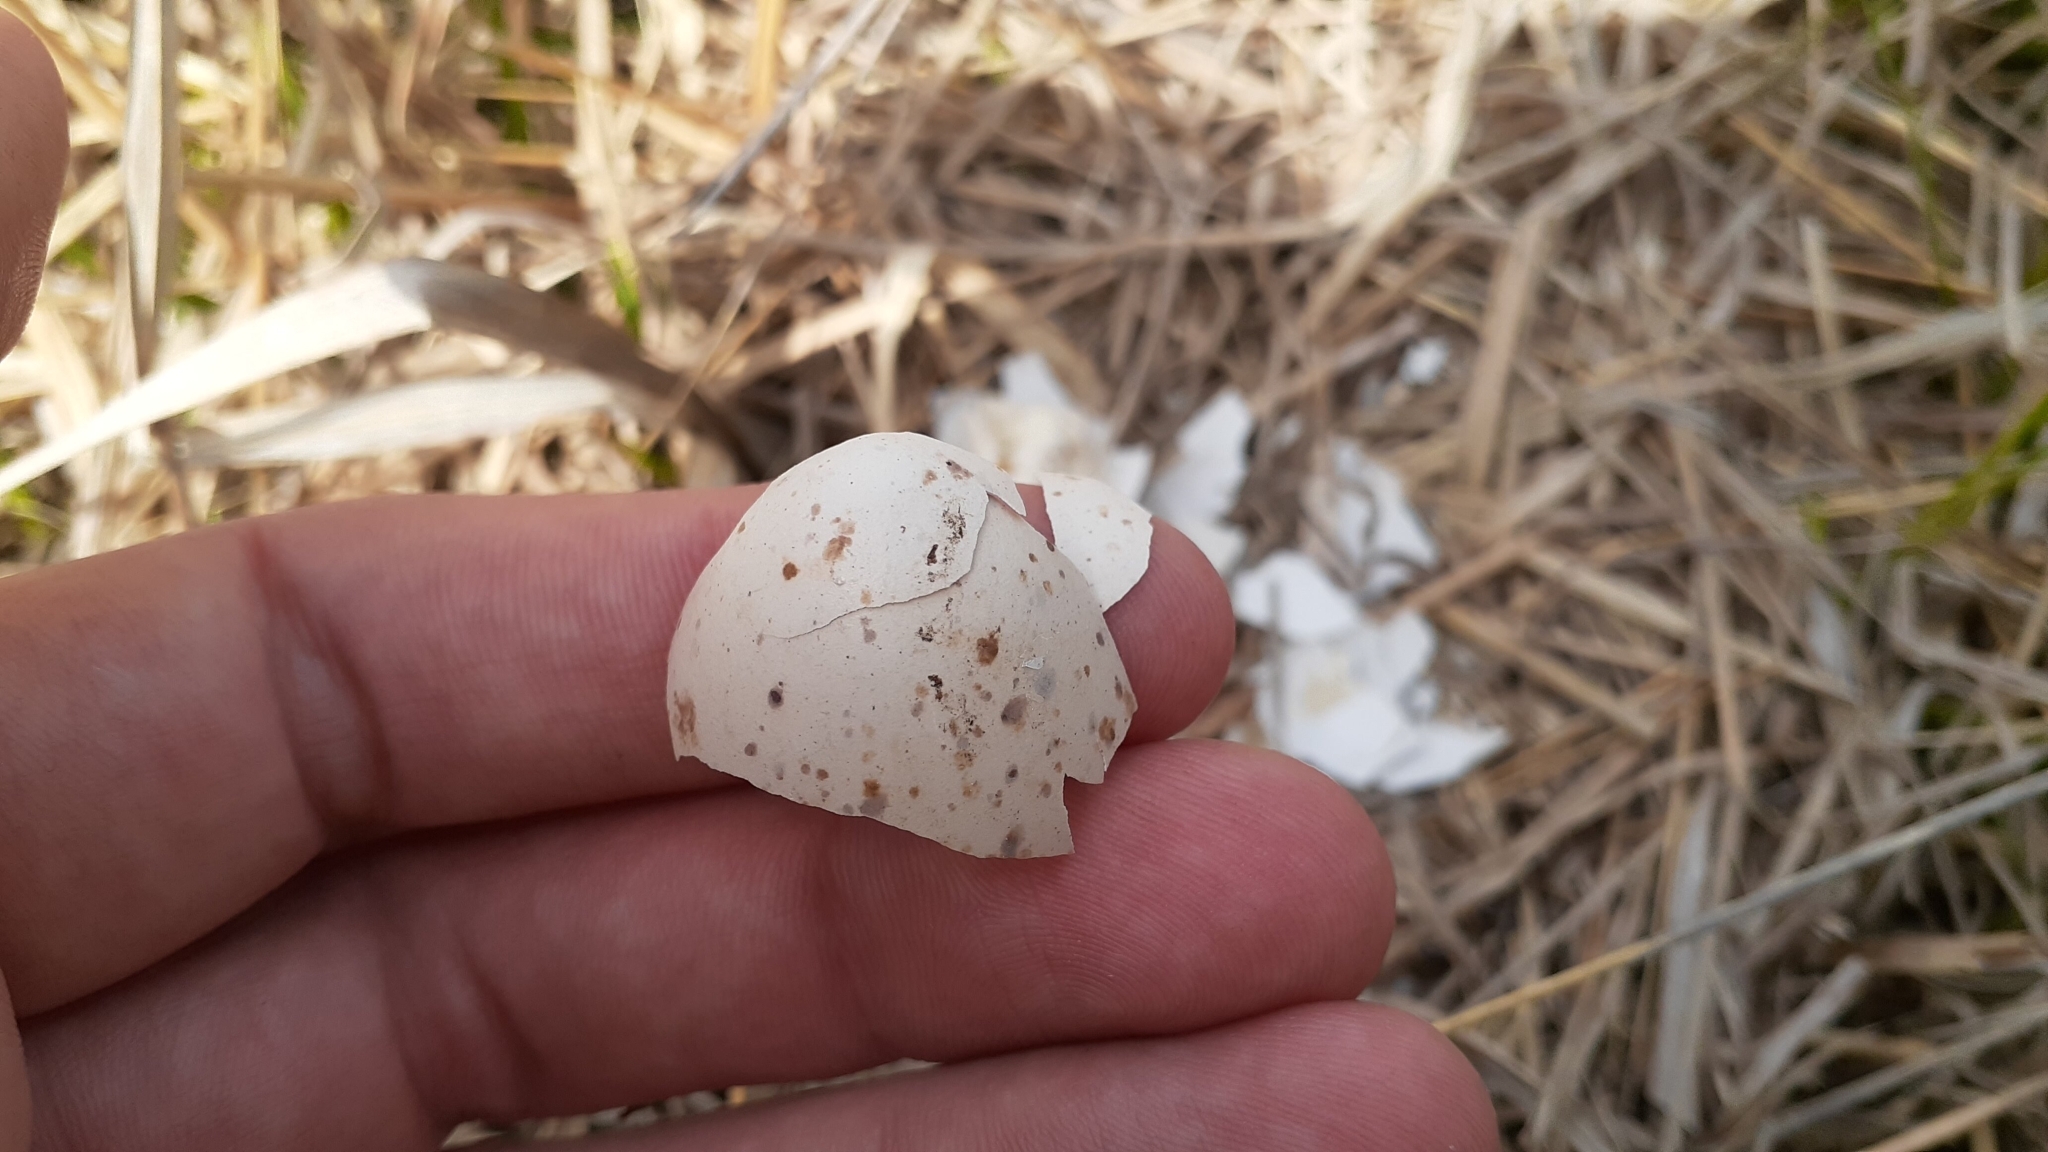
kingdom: Animalia
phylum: Chordata
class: Aves
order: Charadriiformes
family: Scolopacidae
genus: Scolopax
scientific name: Scolopax minor
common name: American woodcock
